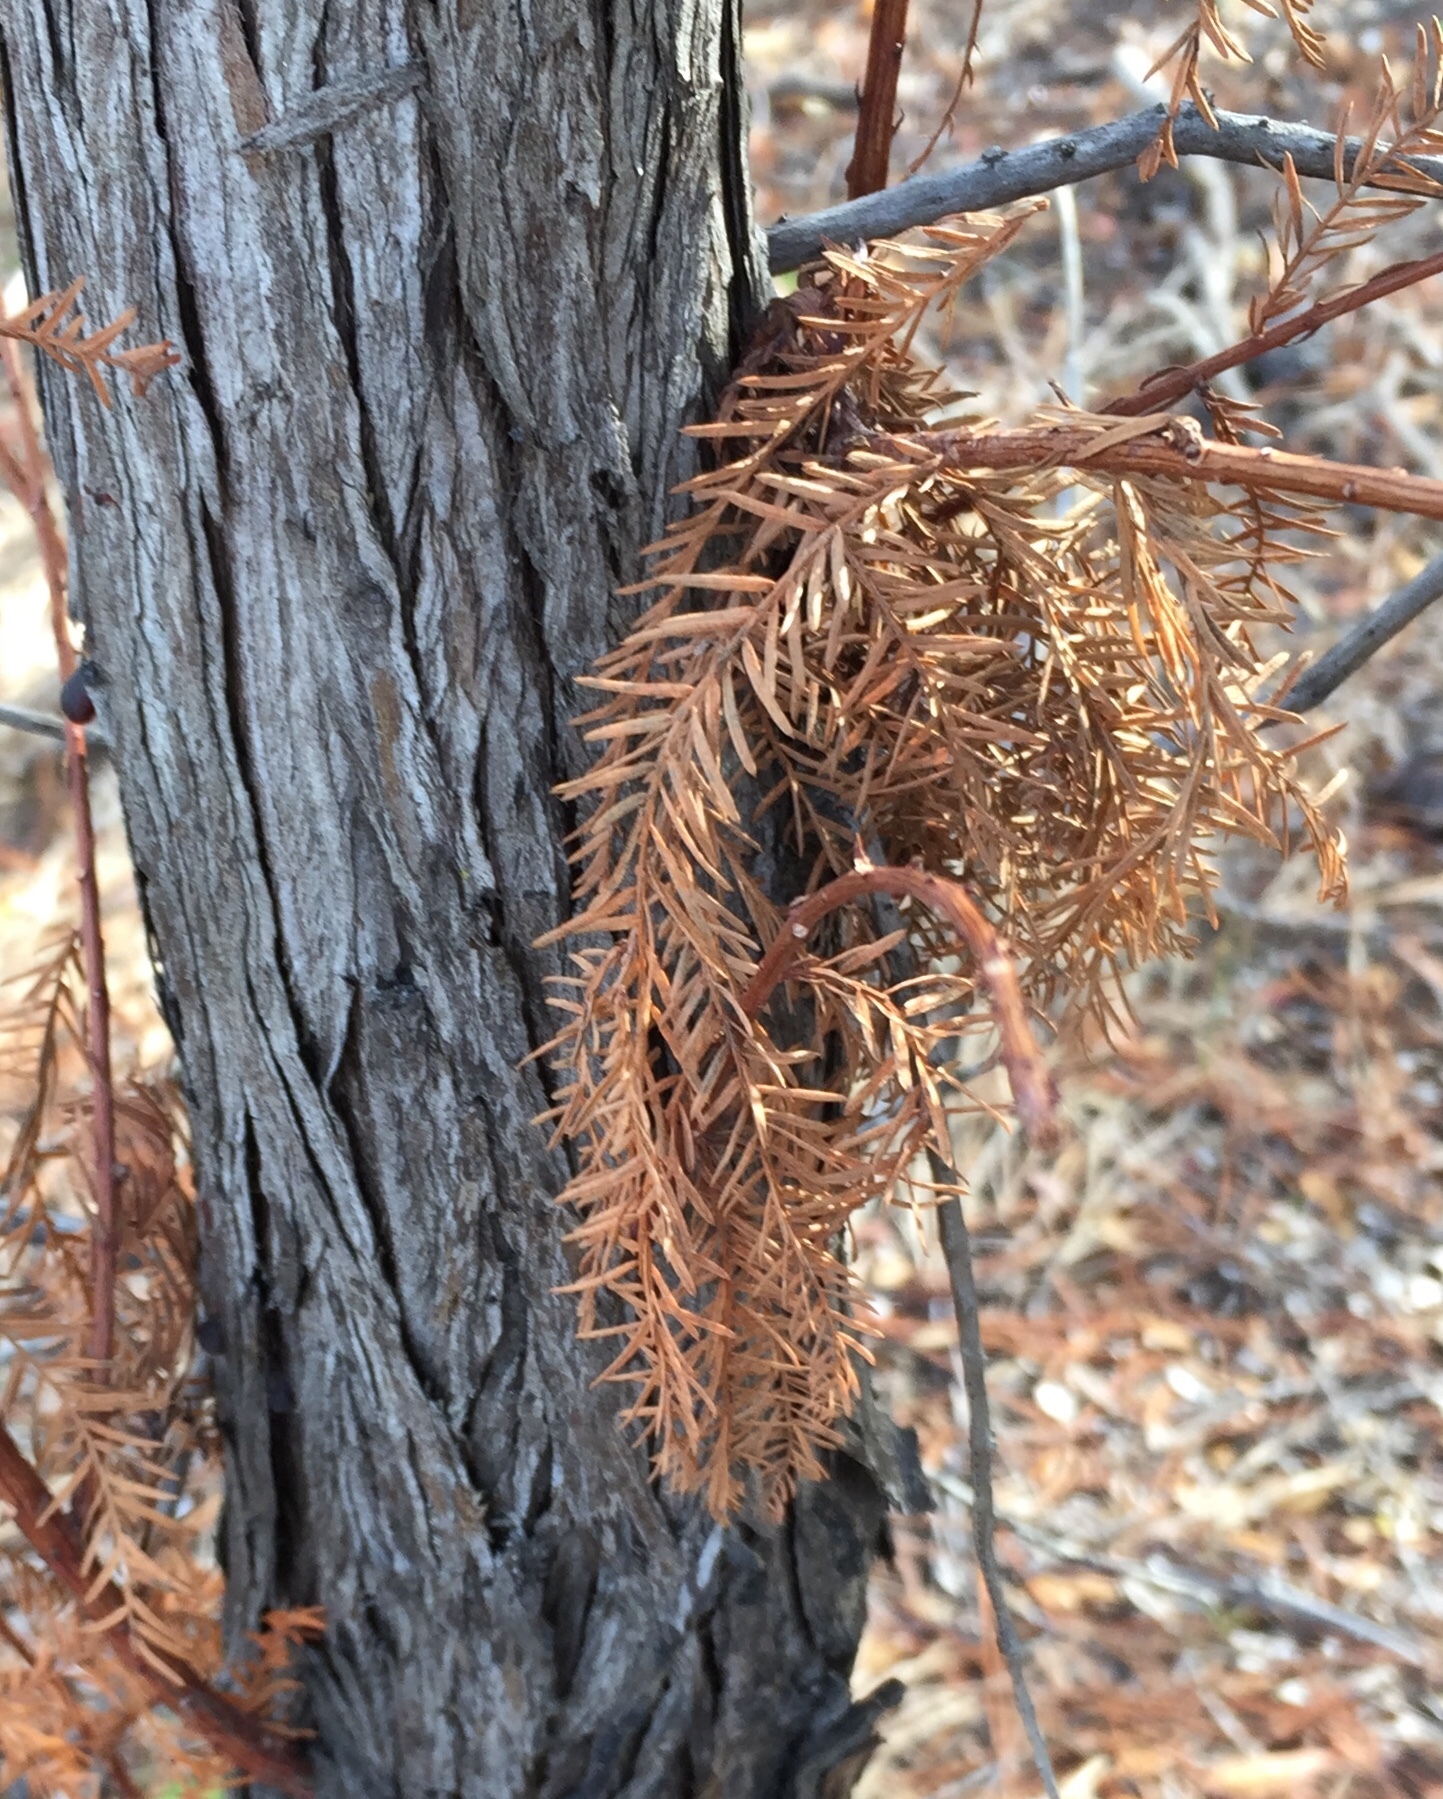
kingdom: Plantae
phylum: Tracheophyta
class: Pinopsida
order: Pinales
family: Cupressaceae
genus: Taxodium
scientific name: Taxodium distichum
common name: Bald cypress
